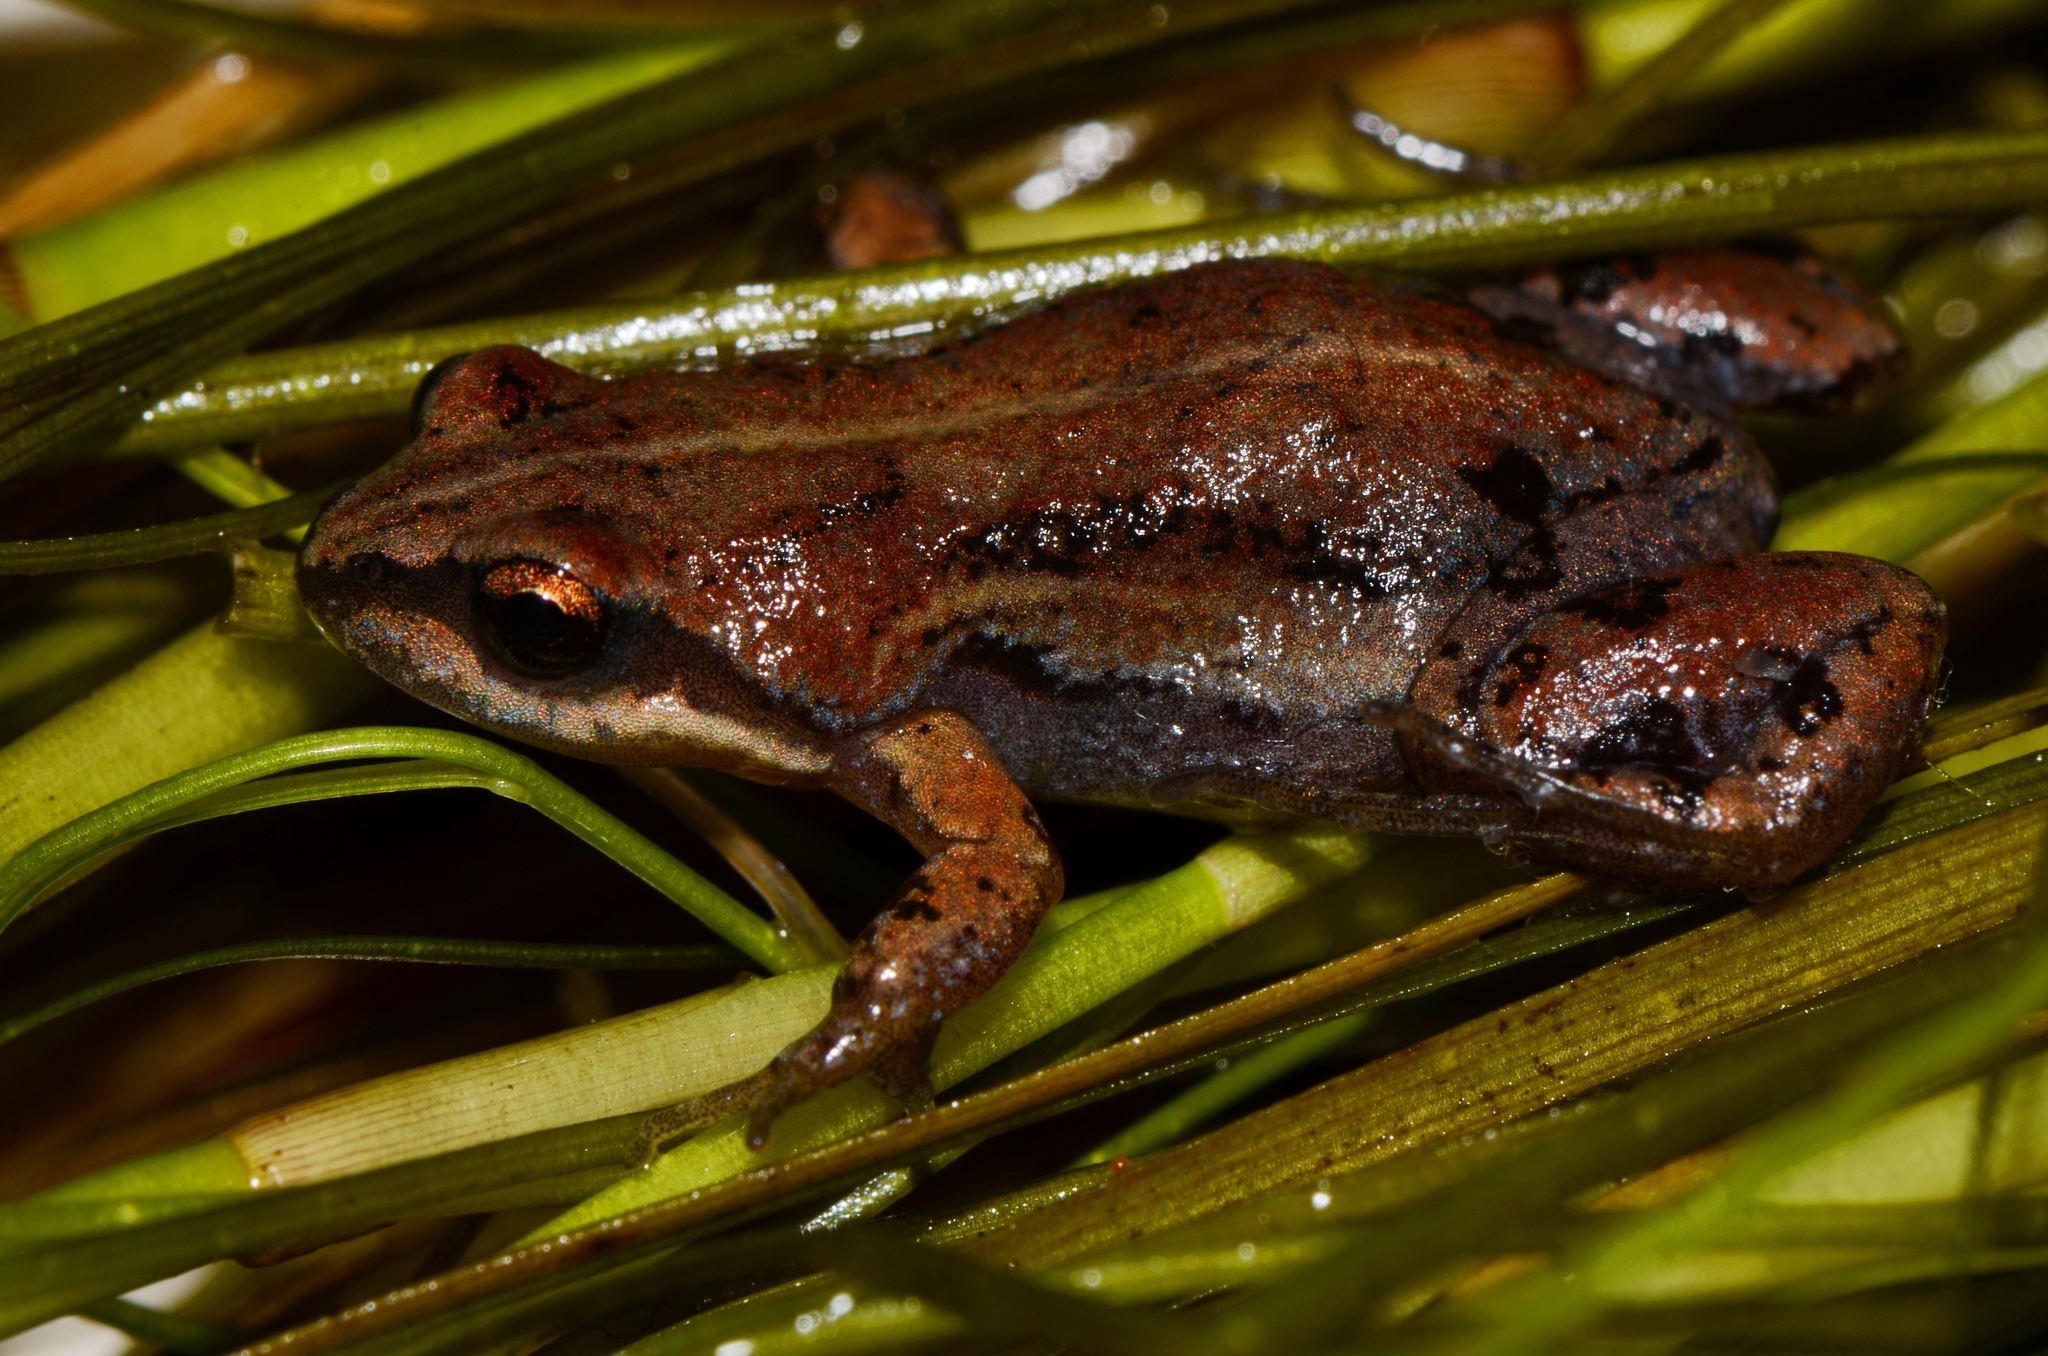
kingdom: Animalia
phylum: Chordata
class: Amphibia
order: Anura
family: Pyxicephalidae
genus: Cacosternum
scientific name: Cacosternum platys
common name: Smooth dainty frog
